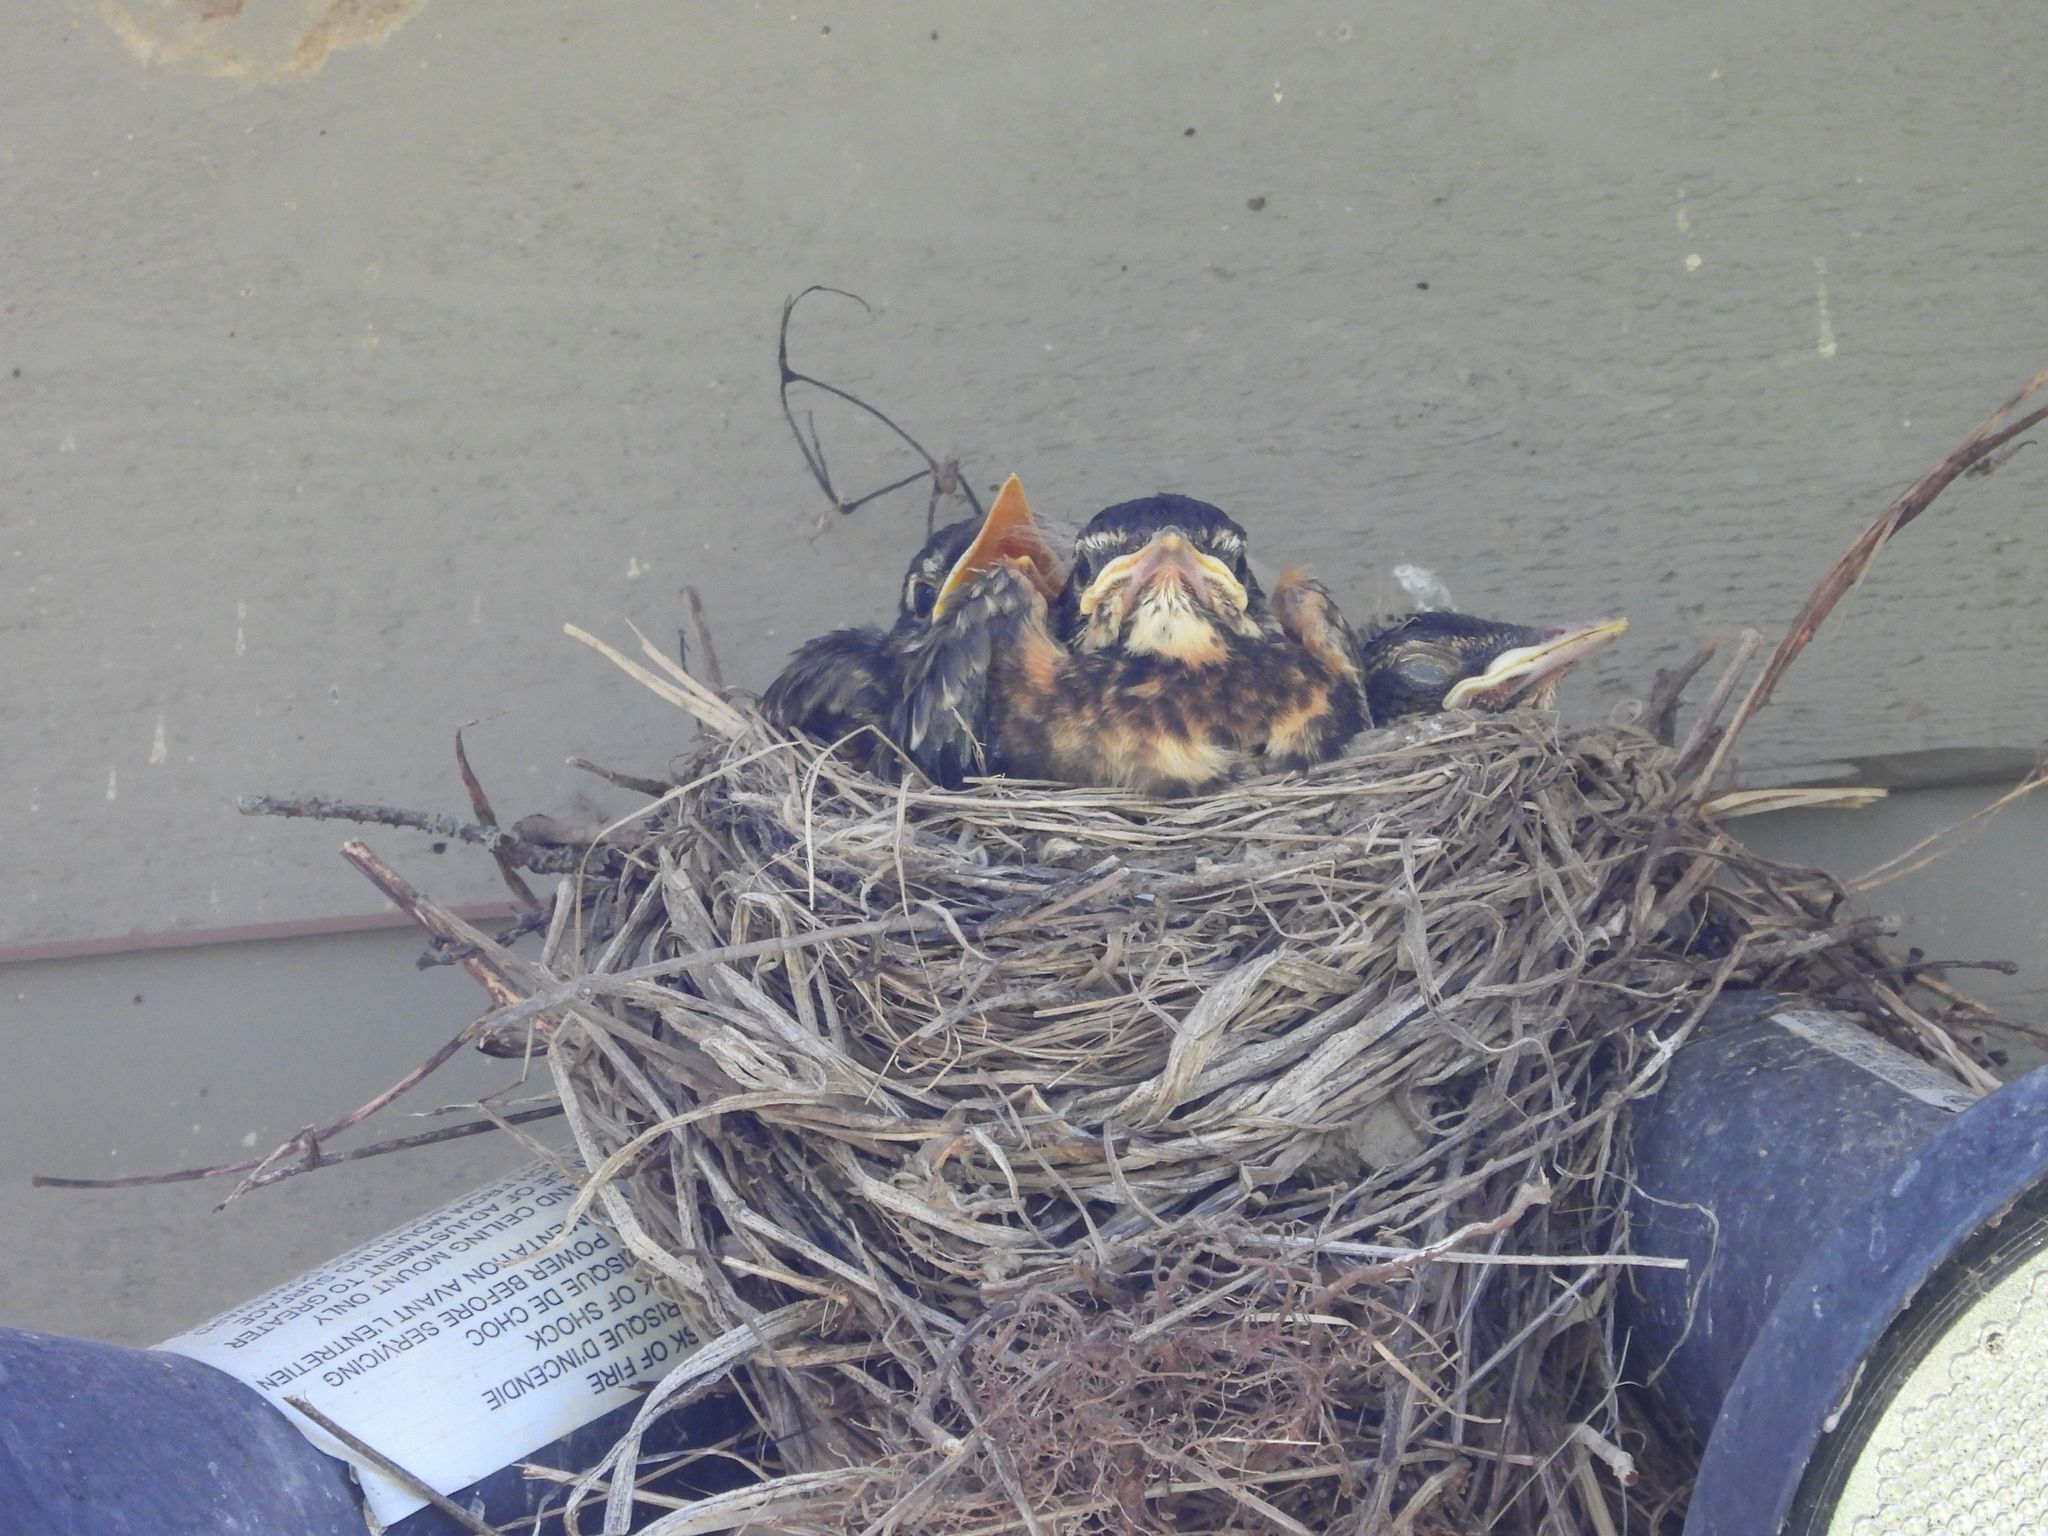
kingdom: Animalia
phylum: Chordata
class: Aves
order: Passeriformes
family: Turdidae
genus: Turdus
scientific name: Turdus migratorius
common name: American robin
